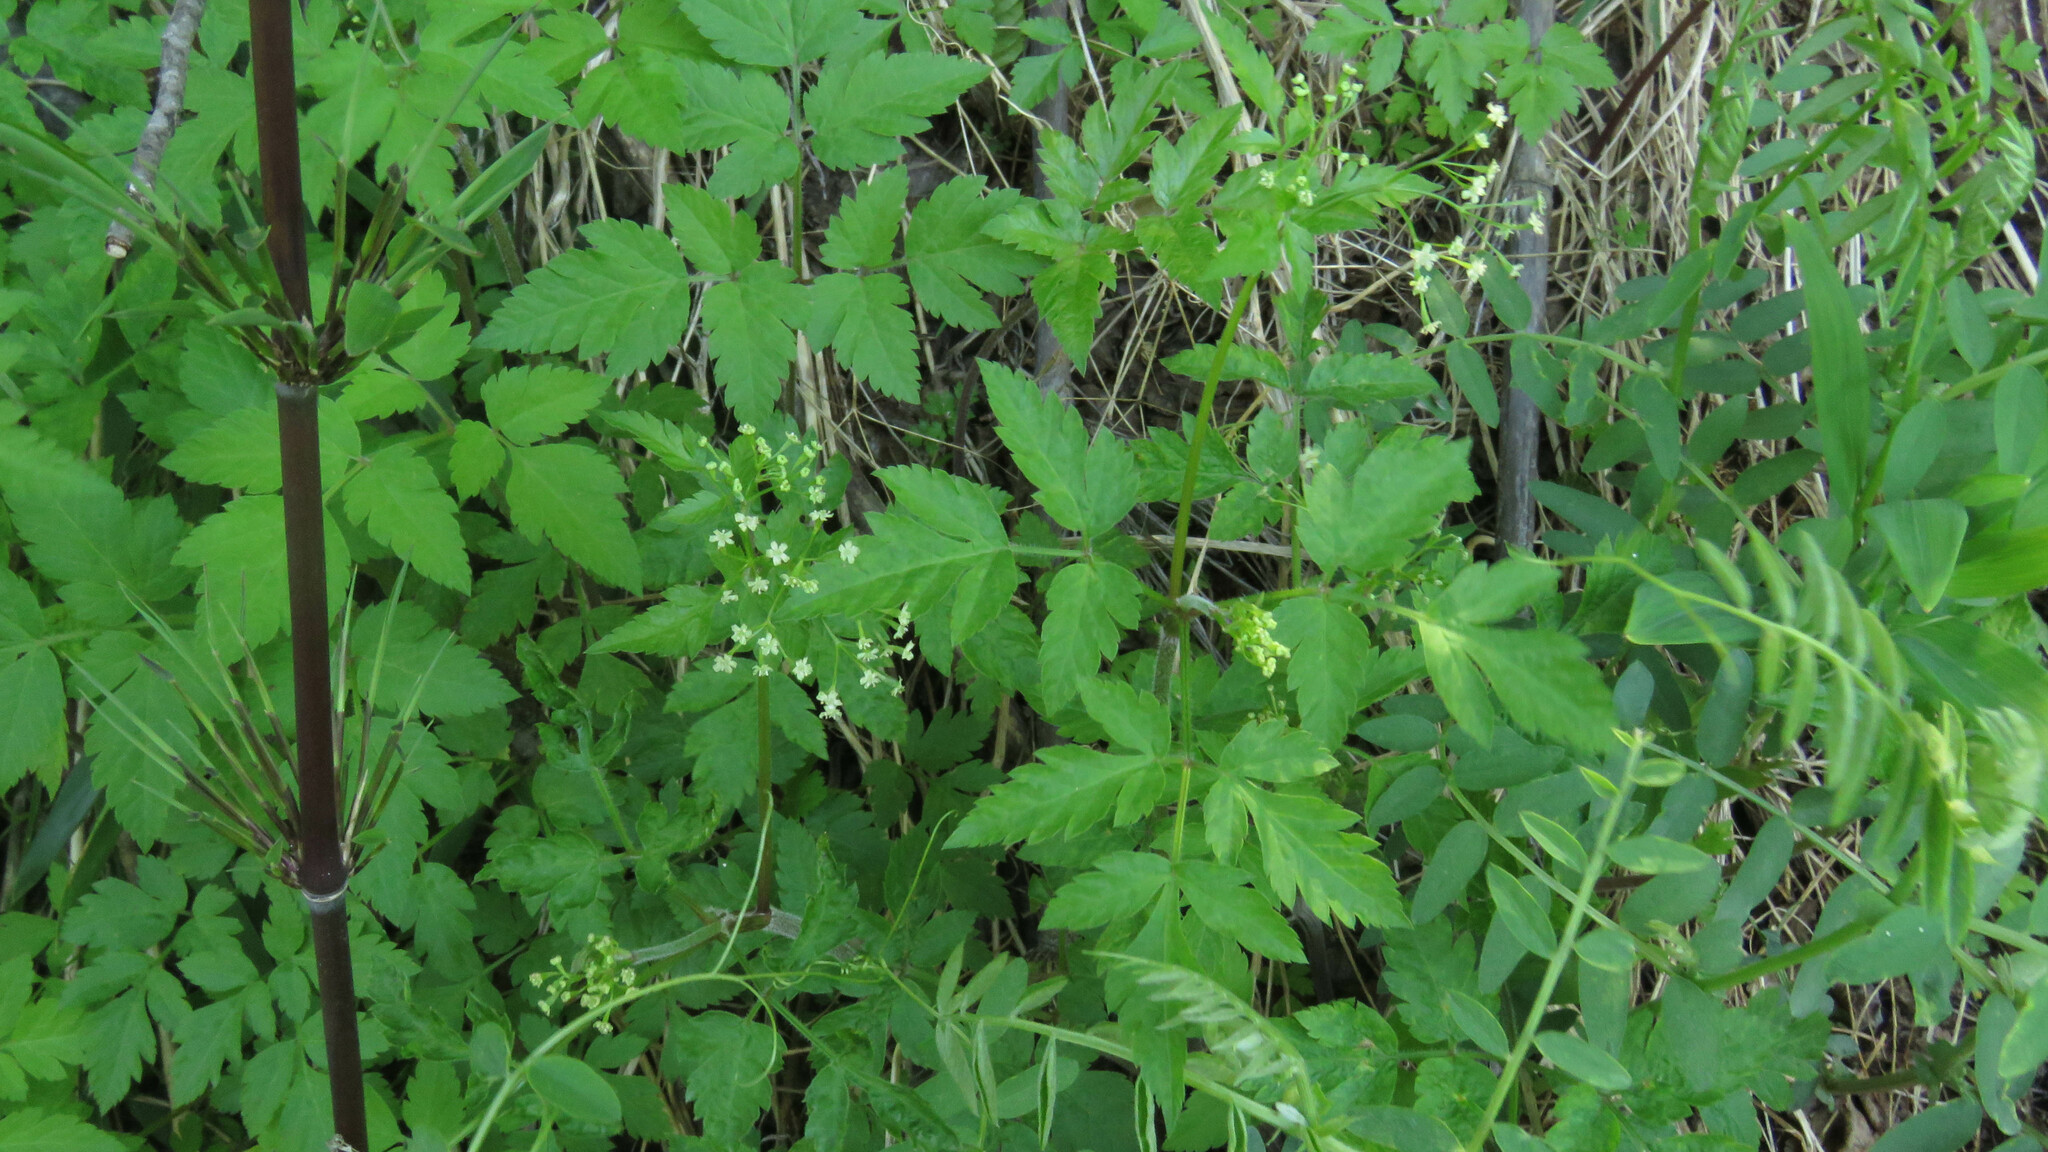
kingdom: Plantae
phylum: Tracheophyta
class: Magnoliopsida
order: Apiales
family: Apiaceae
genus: Osmorhiza
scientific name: Osmorhiza berteroi
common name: Mountain sweet cicely
